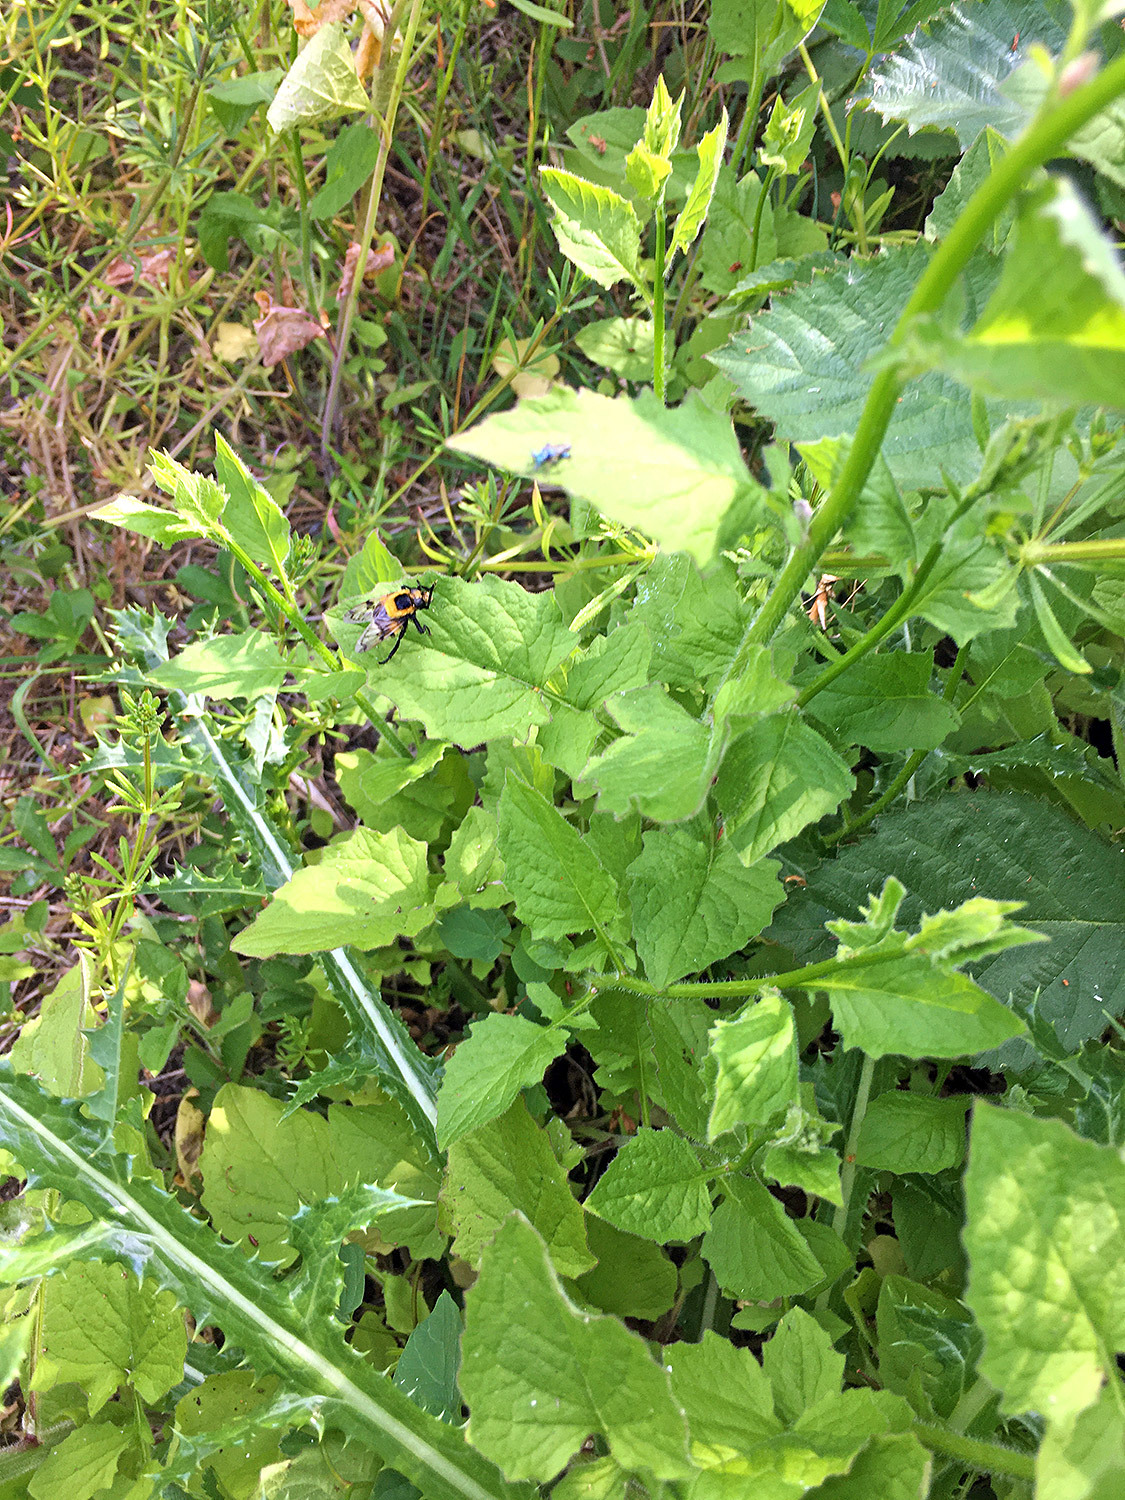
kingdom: Animalia
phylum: Arthropoda
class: Insecta
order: Diptera
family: Syrphidae
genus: Volucella
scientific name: Volucella bombylans
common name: Bumble bee hover fly
